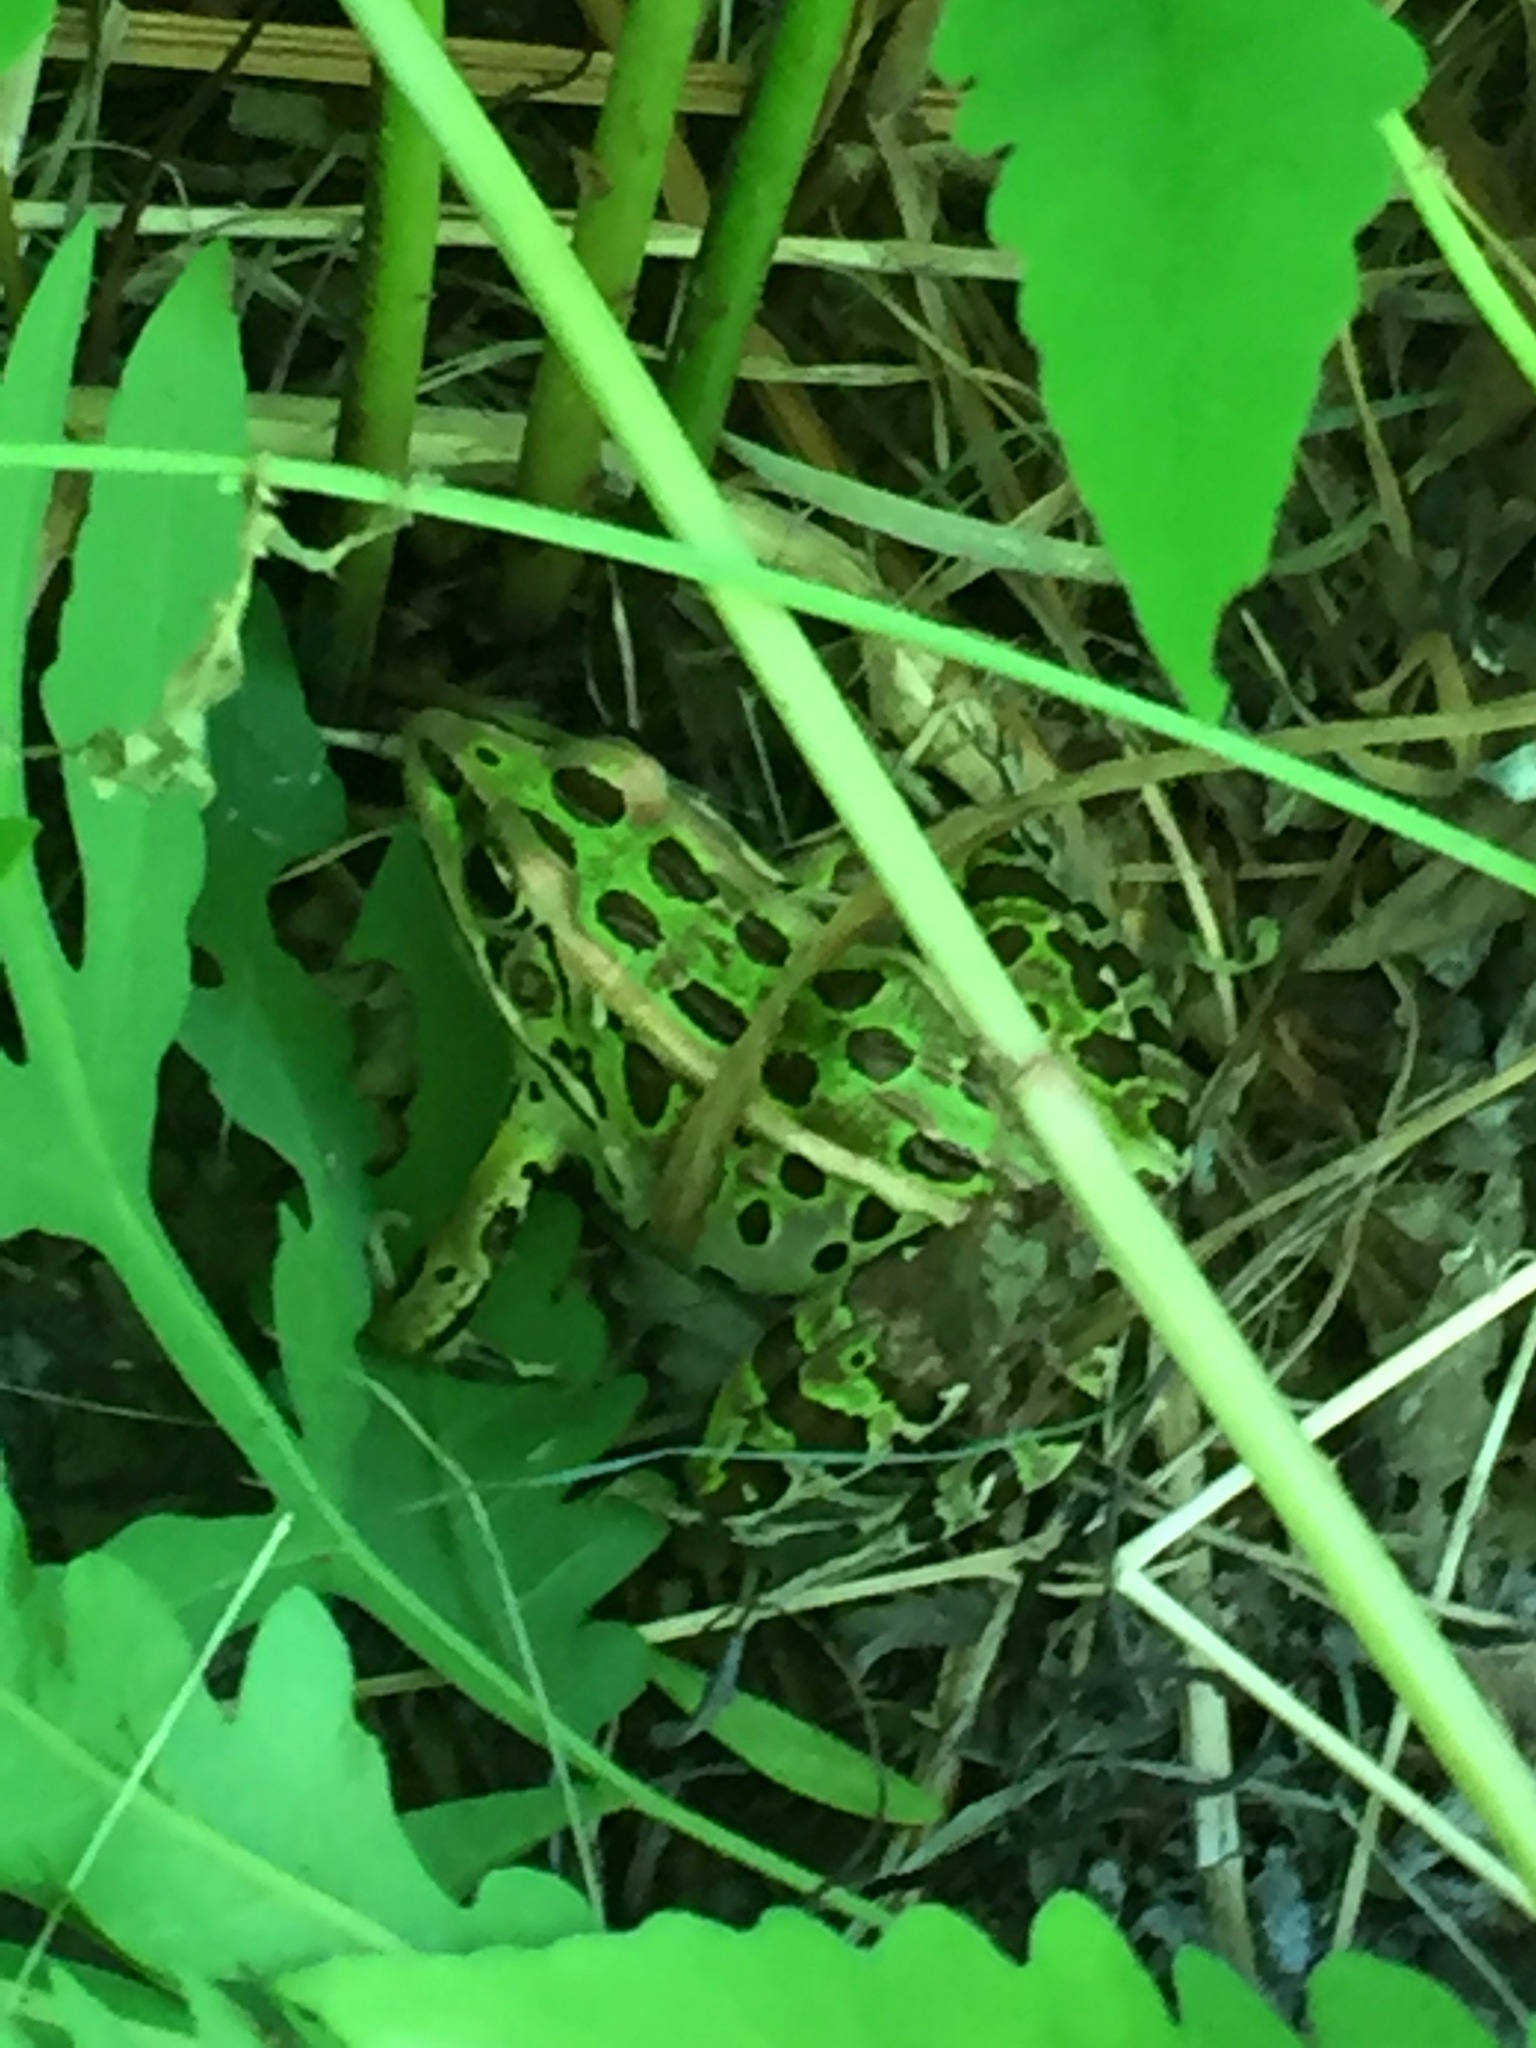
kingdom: Animalia
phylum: Chordata
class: Amphibia
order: Anura
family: Ranidae
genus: Lithobates
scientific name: Lithobates pipiens
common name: Northern leopard frog
